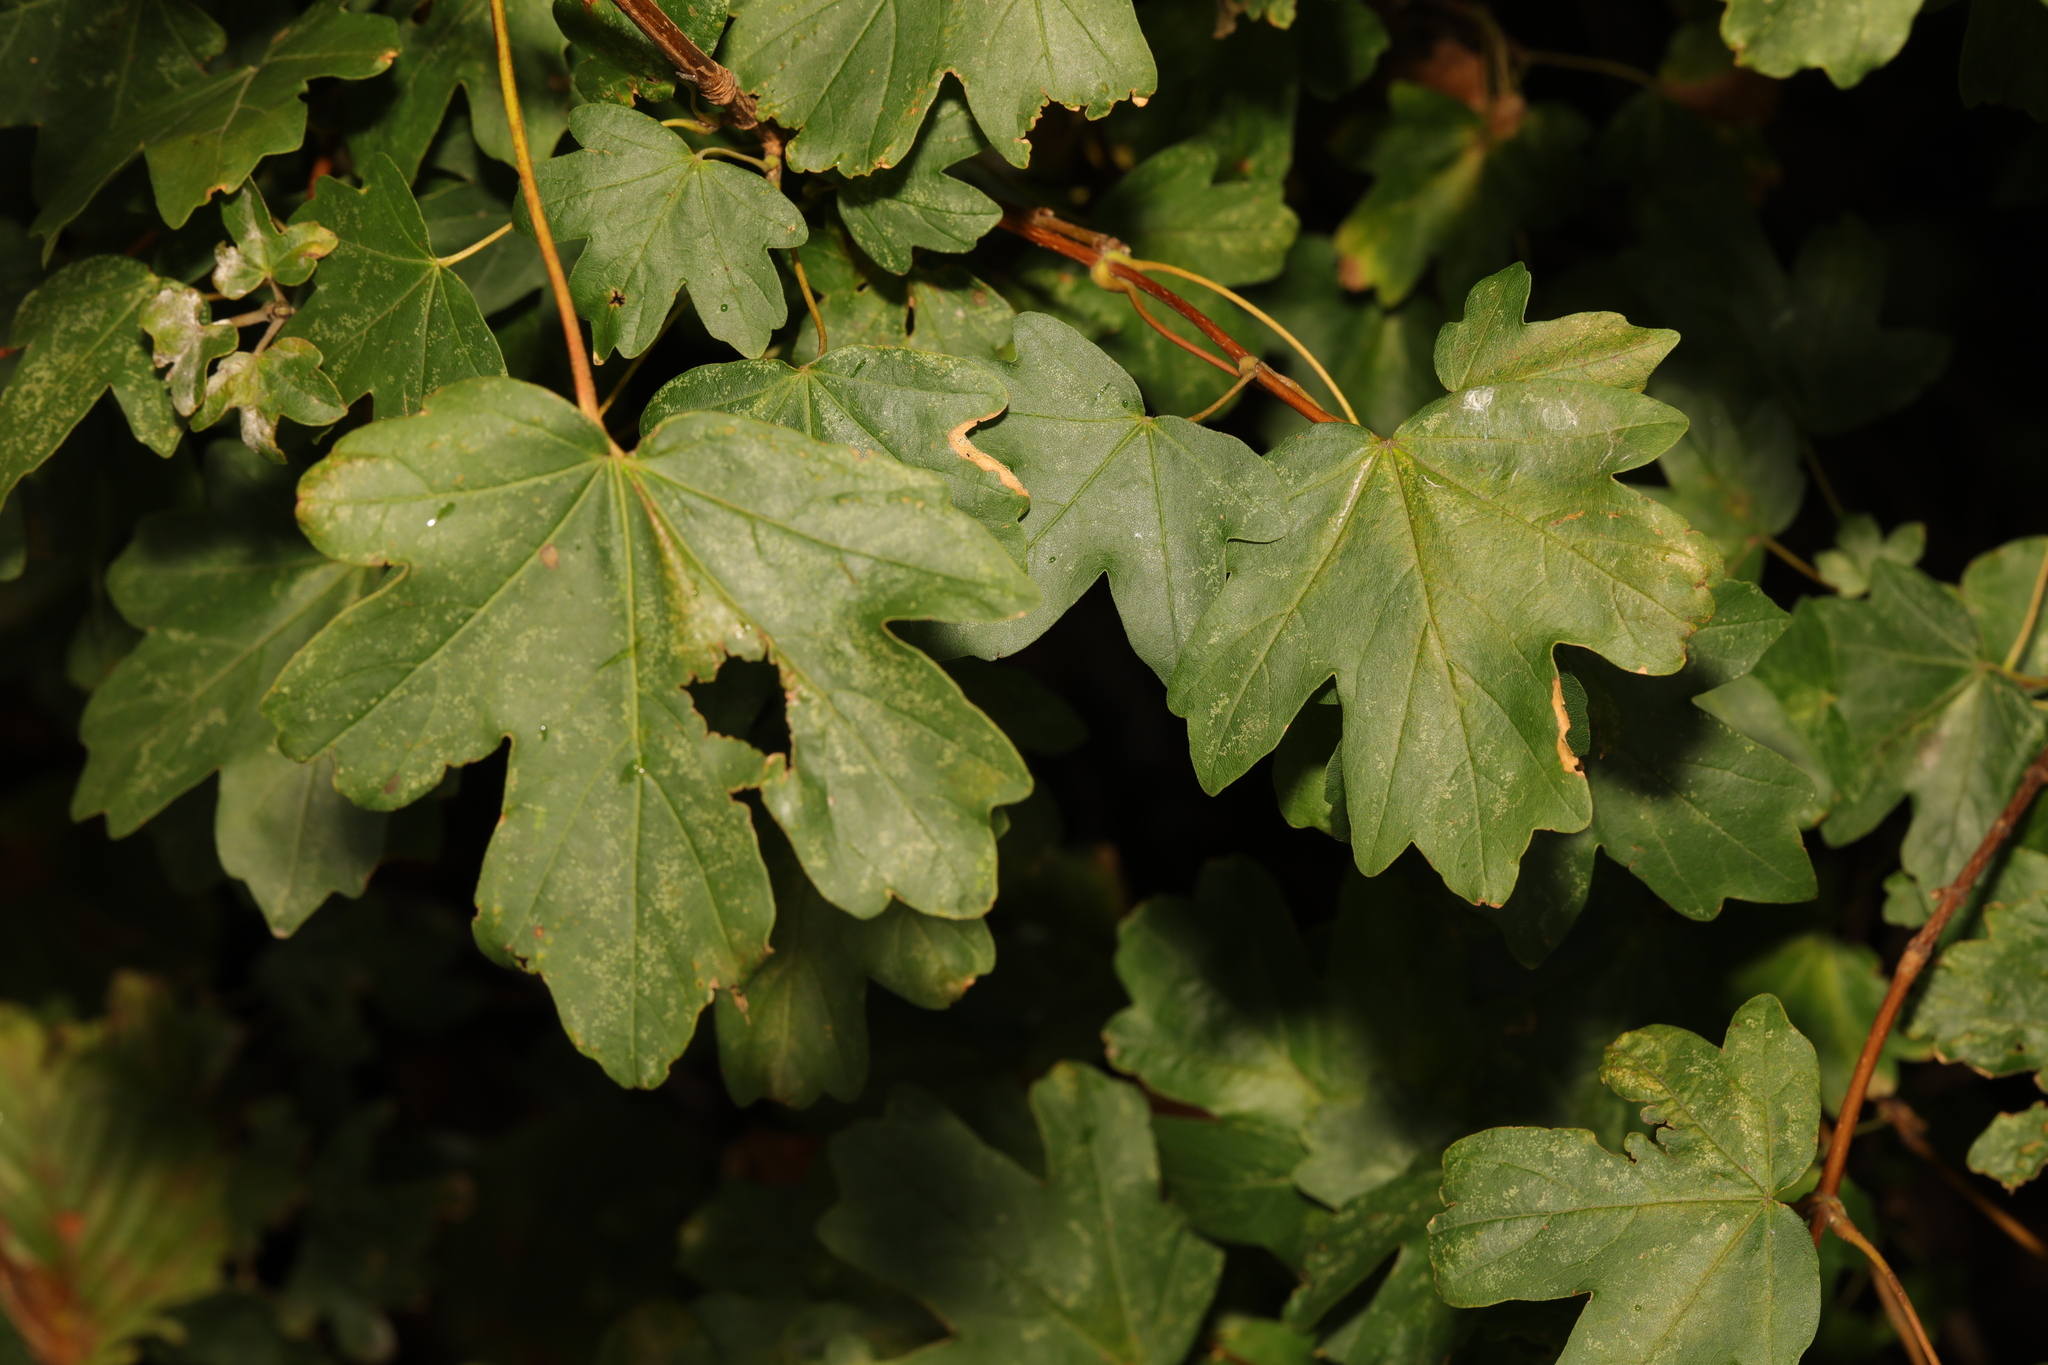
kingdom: Plantae
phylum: Tracheophyta
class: Magnoliopsida
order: Sapindales
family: Sapindaceae
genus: Acer
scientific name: Acer campestre
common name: Field maple
